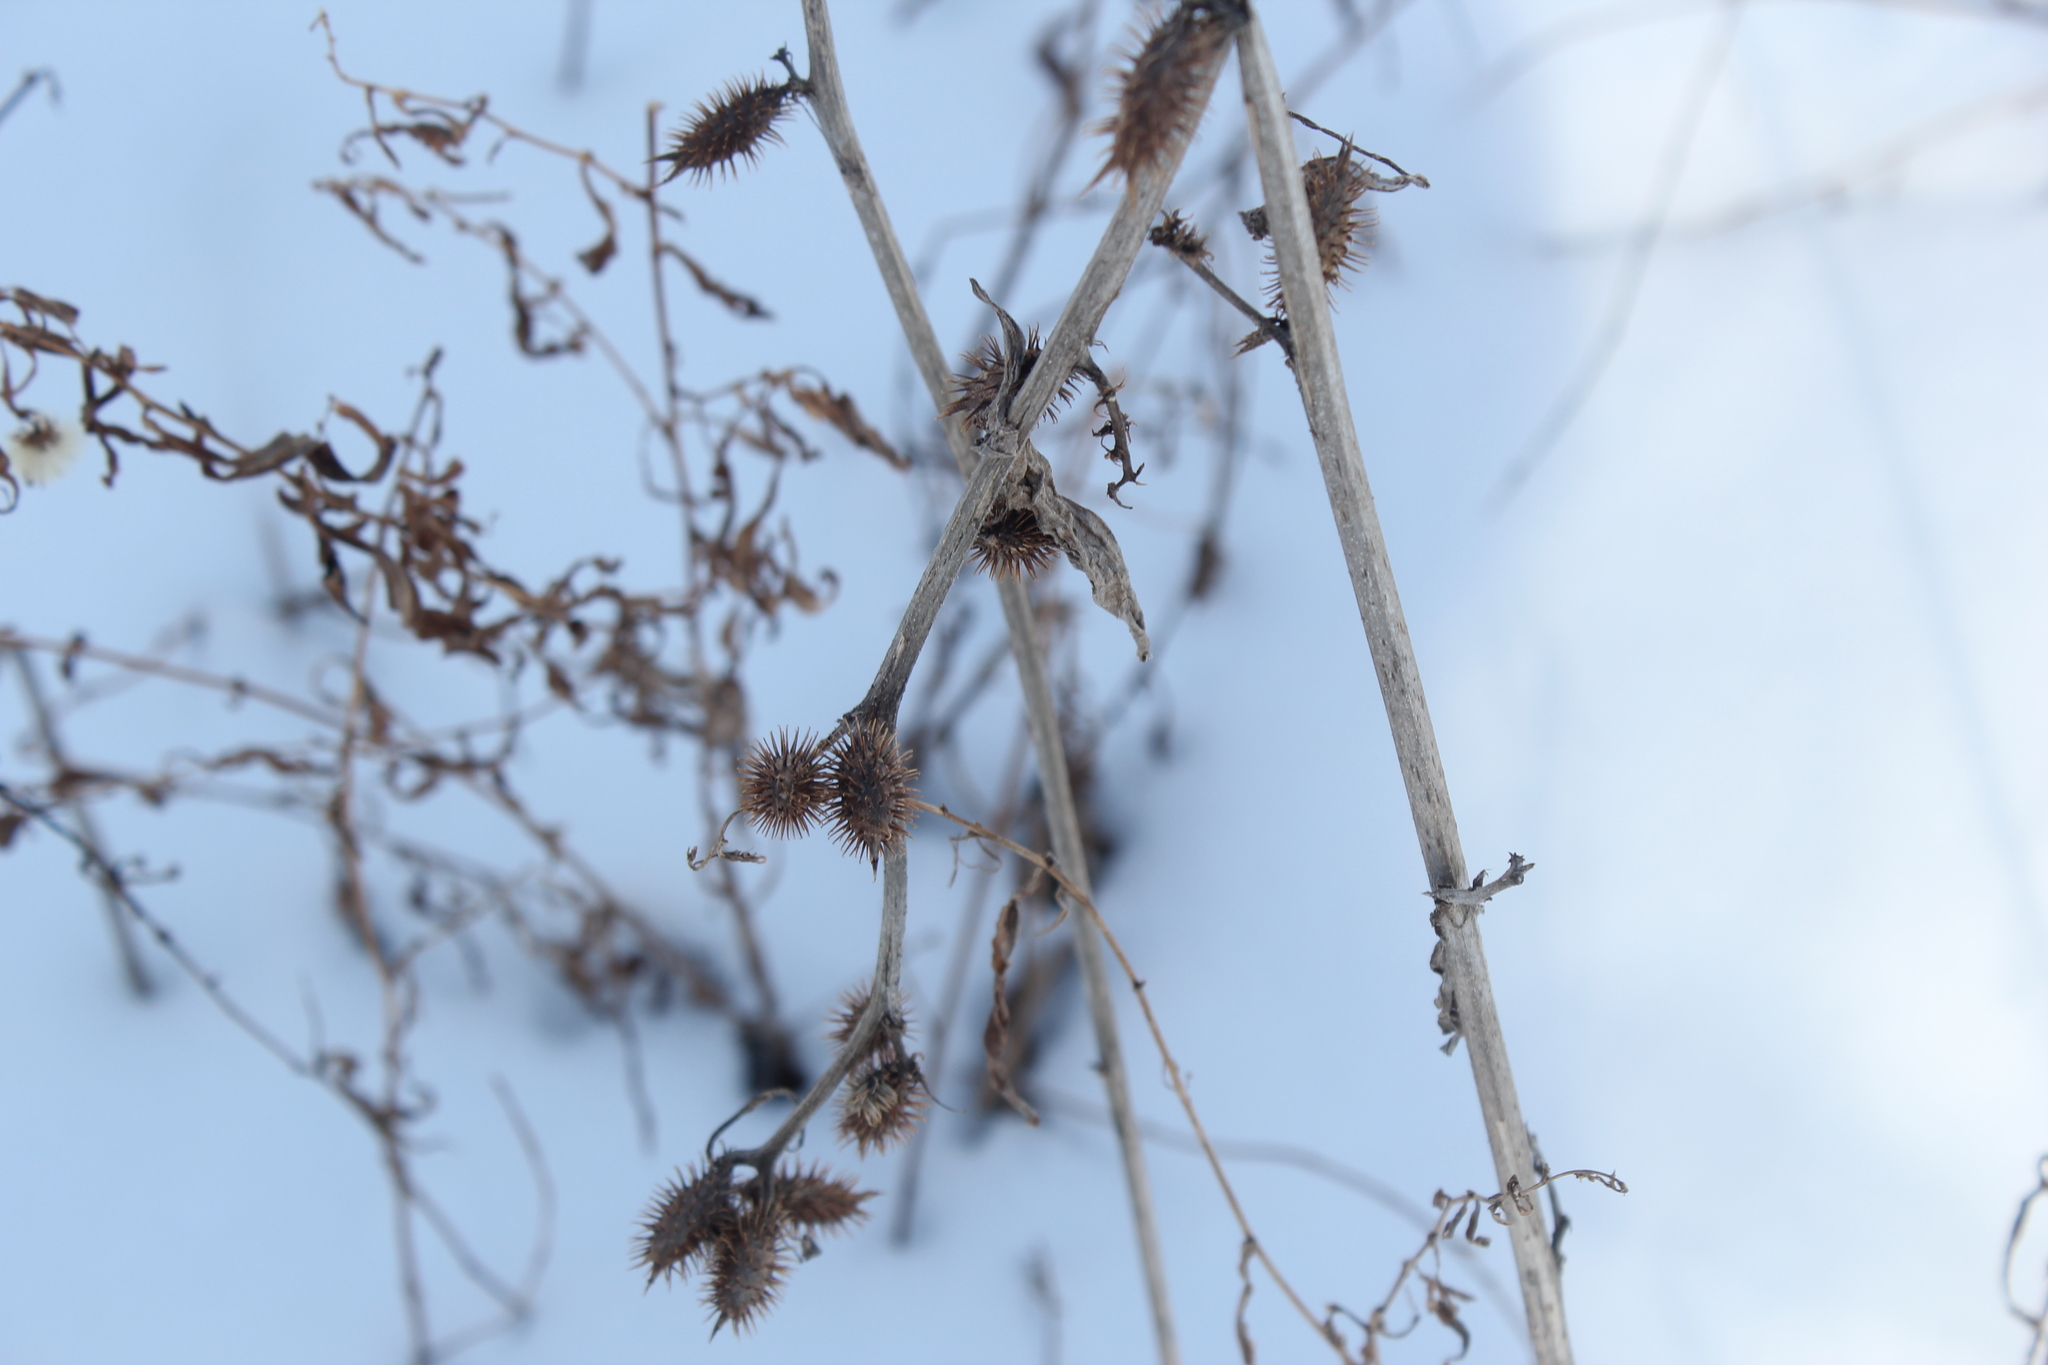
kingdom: Plantae
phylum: Tracheophyta
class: Magnoliopsida
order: Asterales
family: Asteraceae
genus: Xanthium
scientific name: Xanthium strumarium
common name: Rough cocklebur
